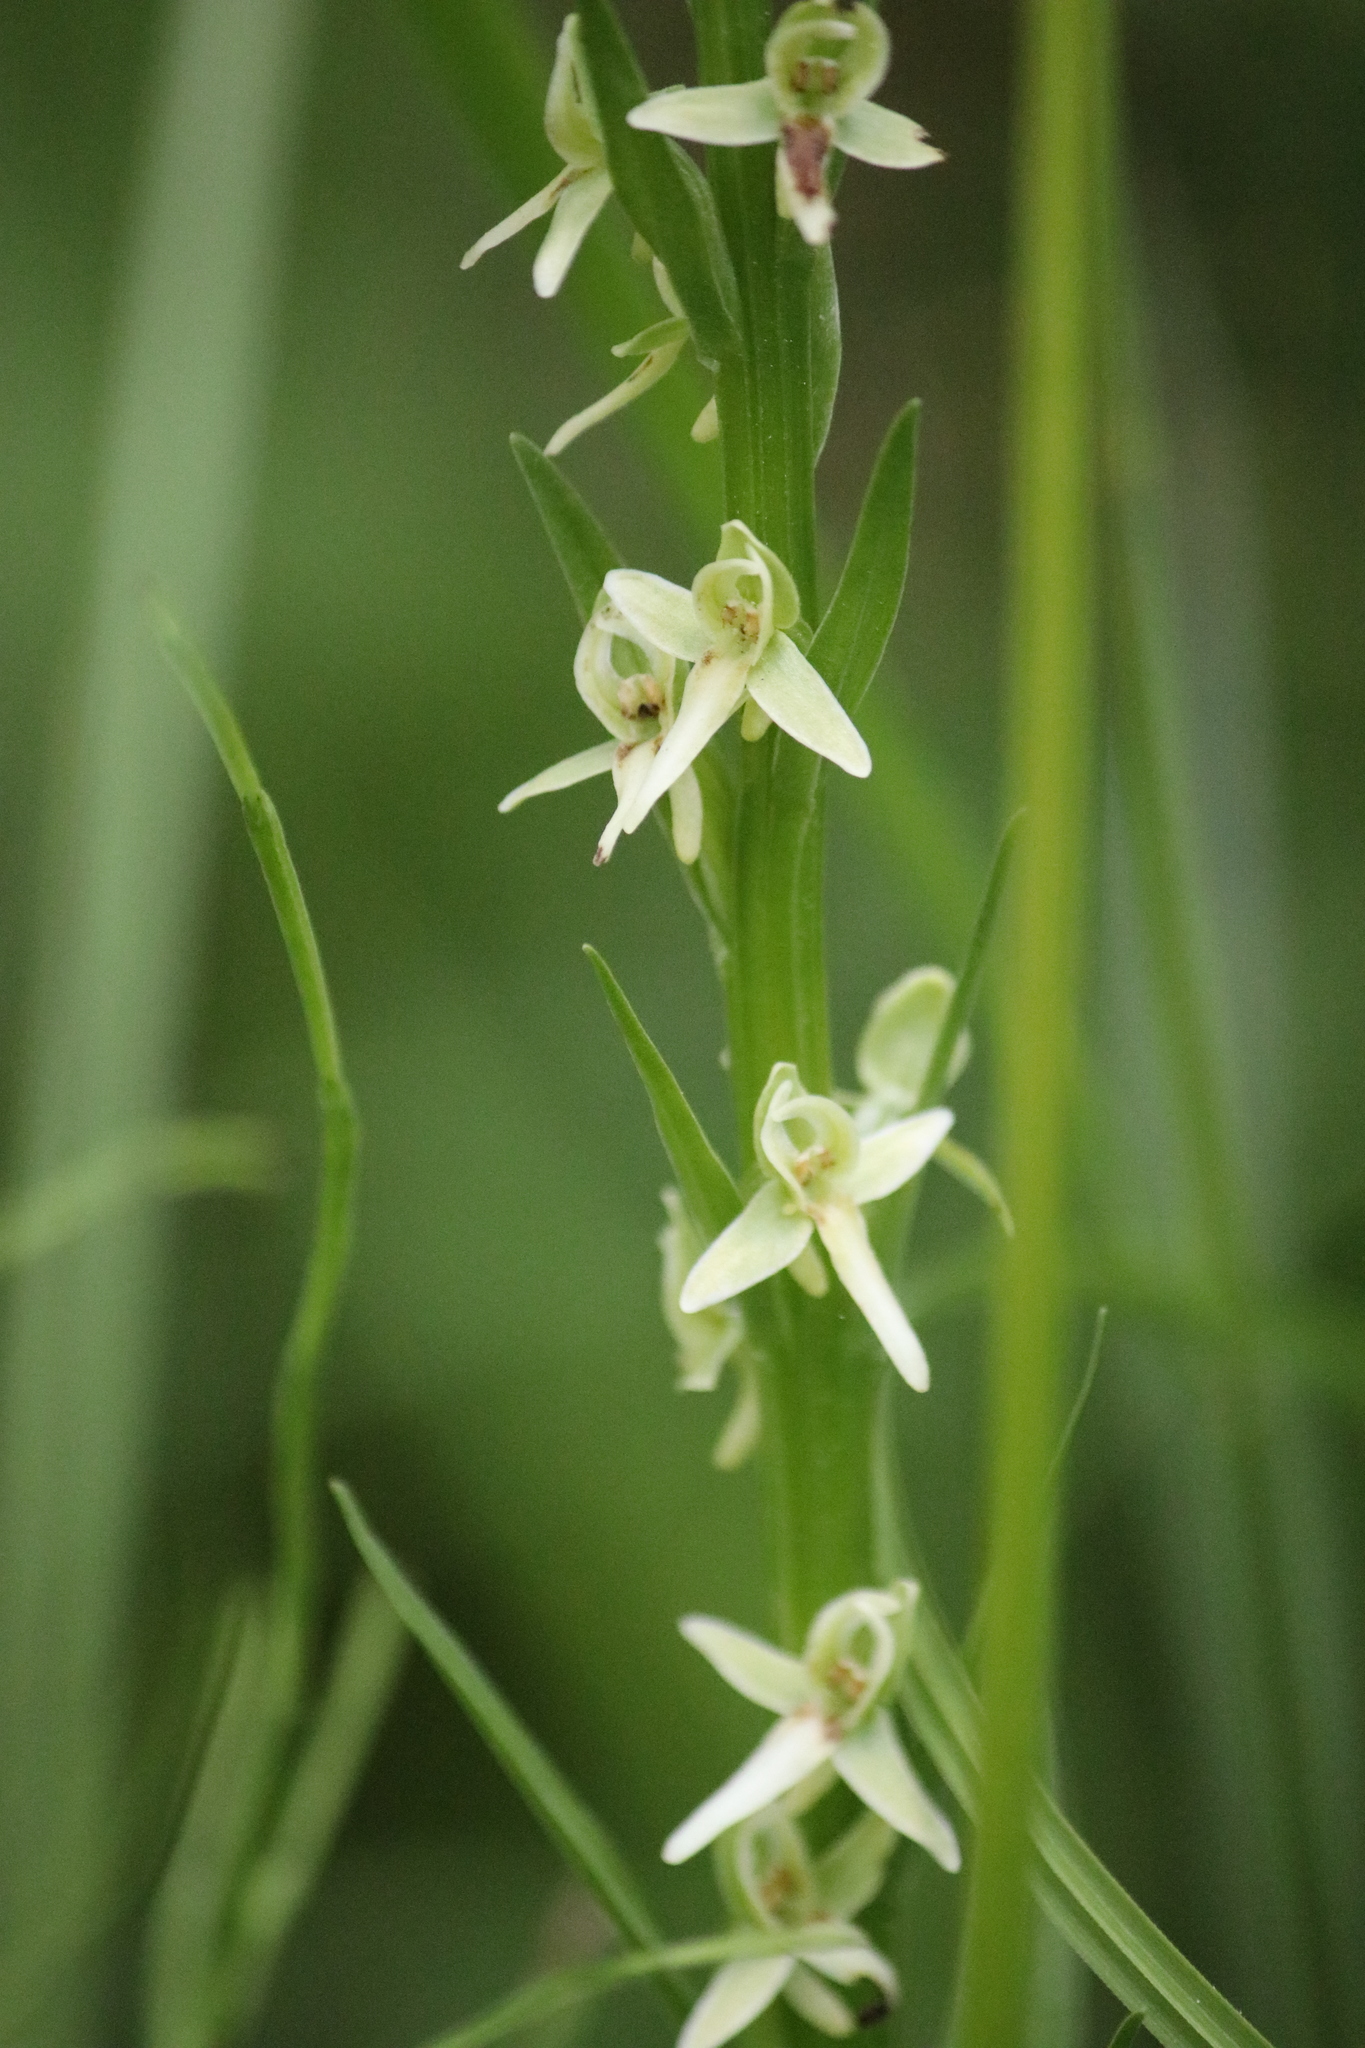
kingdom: Plantae
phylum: Tracheophyta
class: Liliopsida
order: Asparagales
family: Orchidaceae
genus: Platanthera
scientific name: Platanthera dilatata
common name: Bog candles
